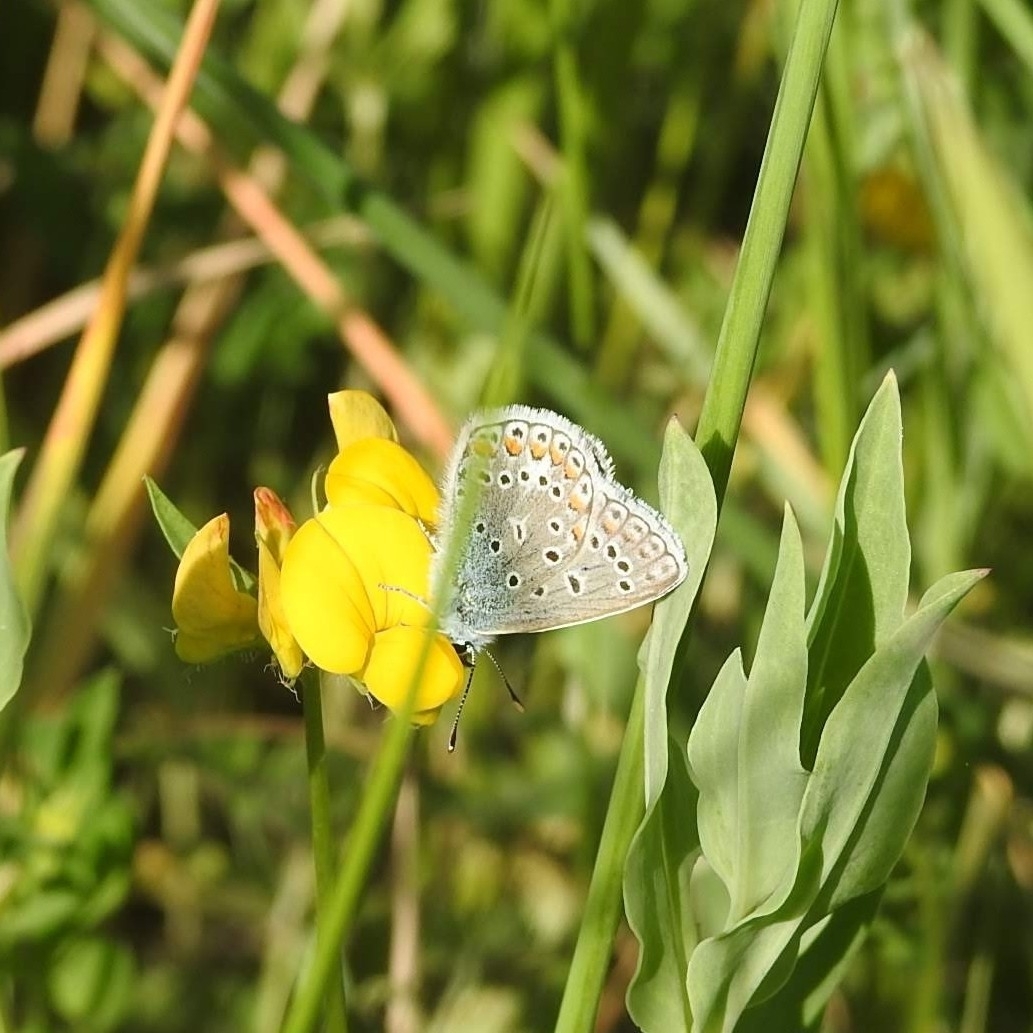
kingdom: Animalia
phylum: Arthropoda
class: Insecta
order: Lepidoptera
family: Lycaenidae
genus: Polyommatus
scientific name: Polyommatus icarus
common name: Common blue
